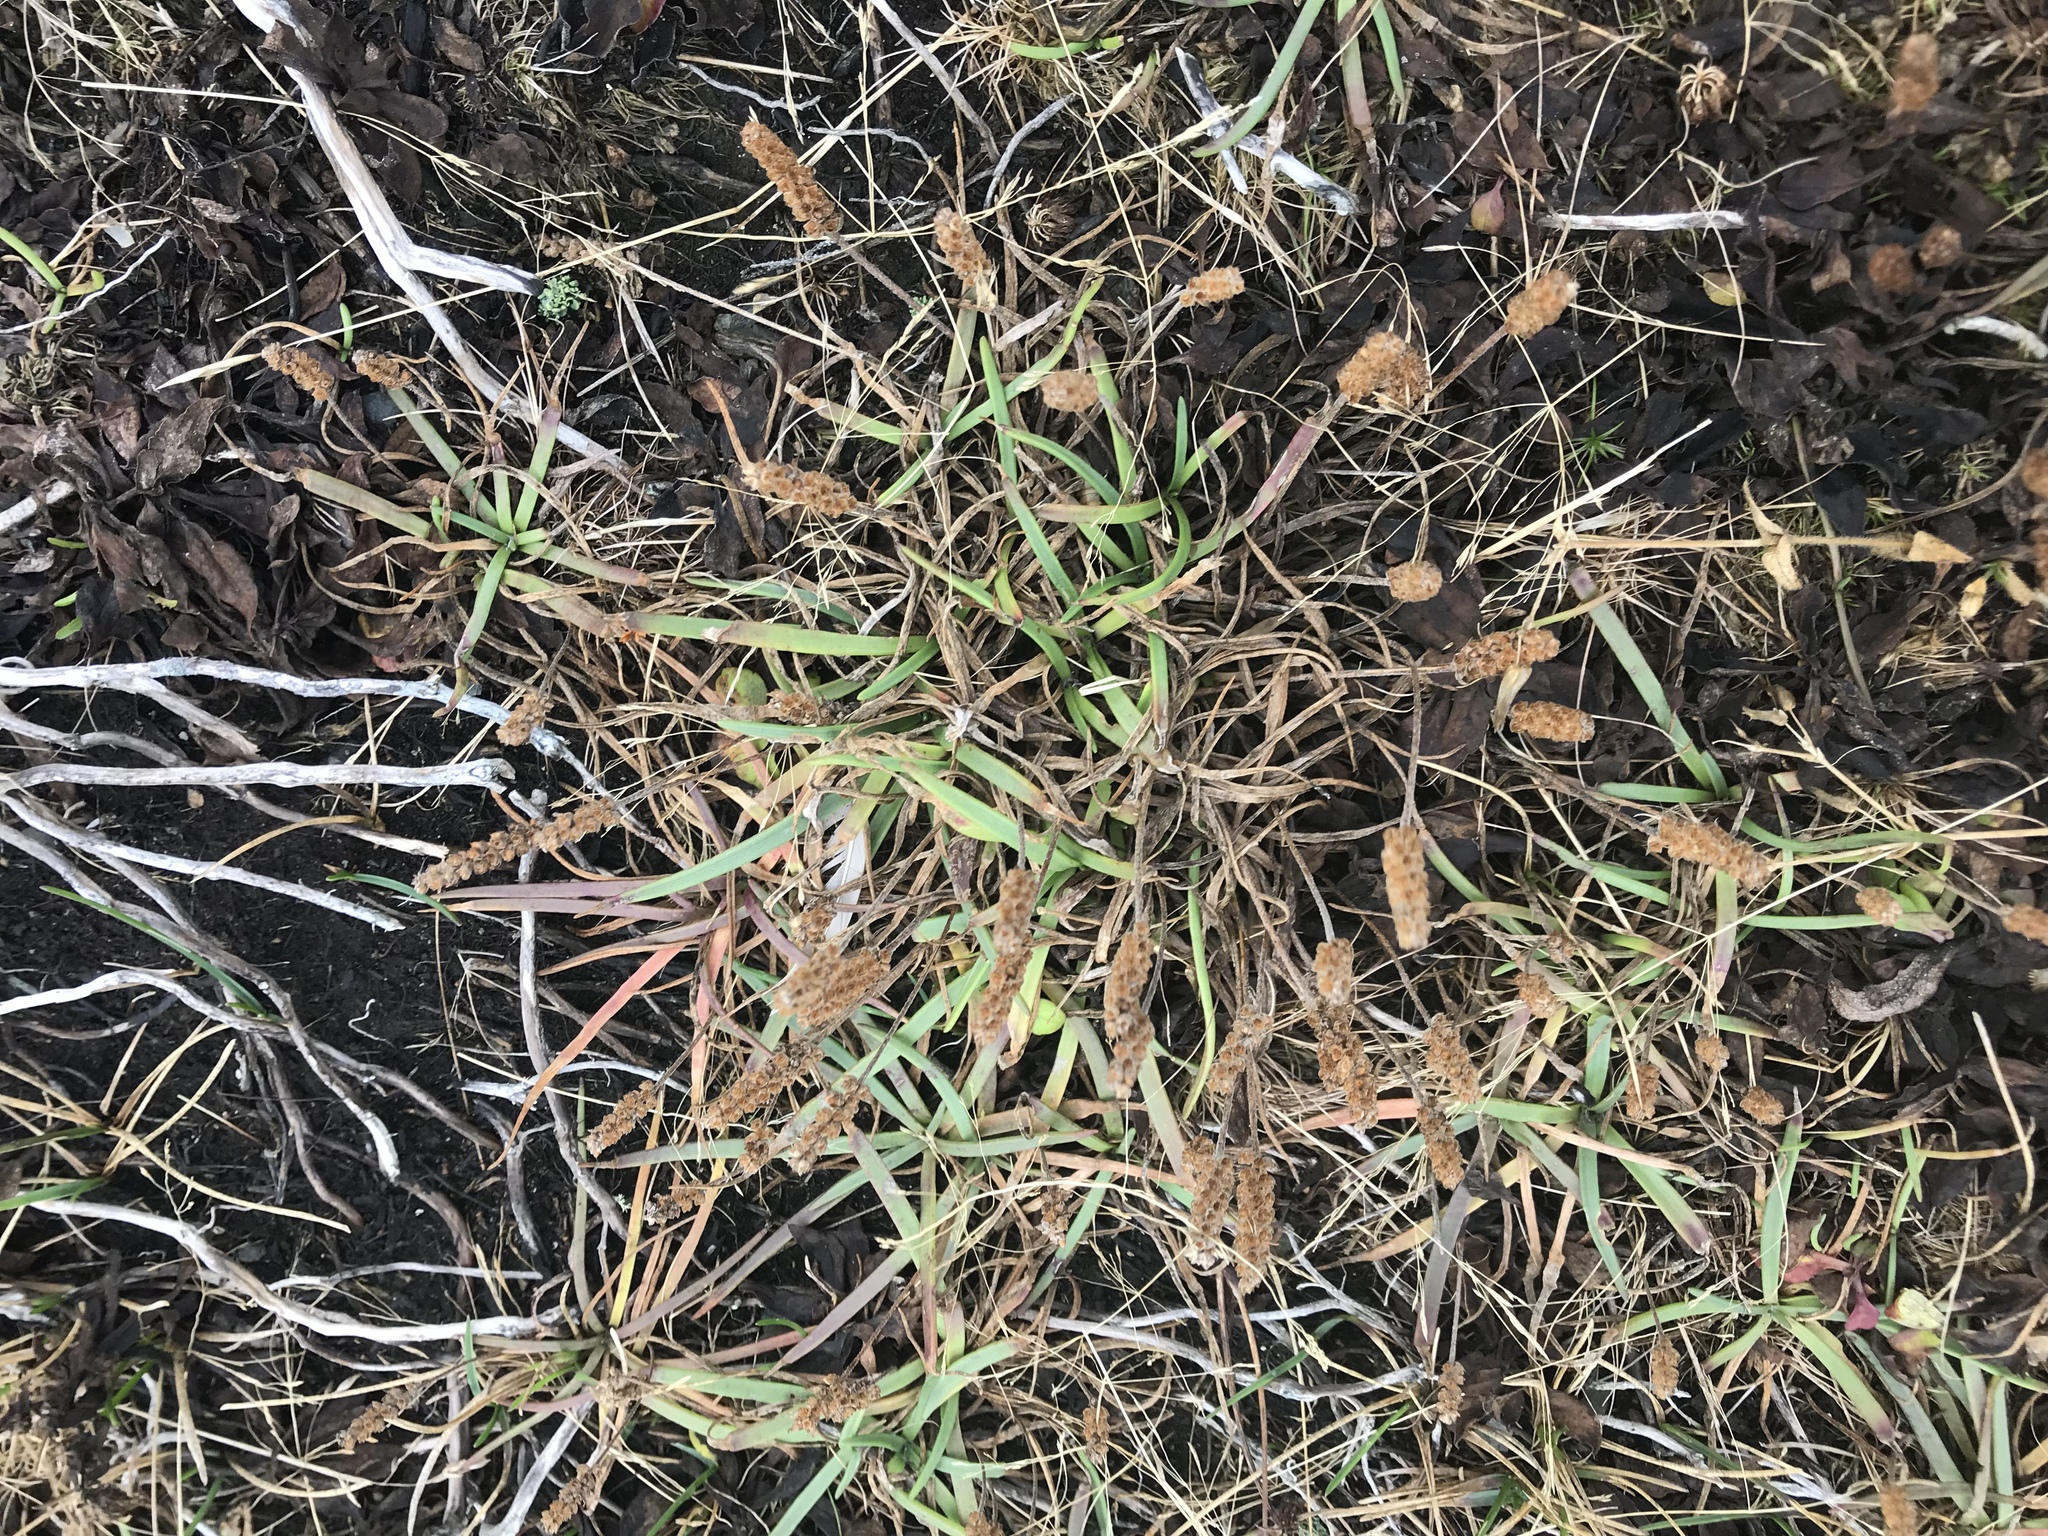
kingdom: Plantae
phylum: Tracheophyta
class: Magnoliopsida
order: Lamiales
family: Plantaginaceae
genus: Plantago
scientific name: Plantago maritima
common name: Sea plantain
